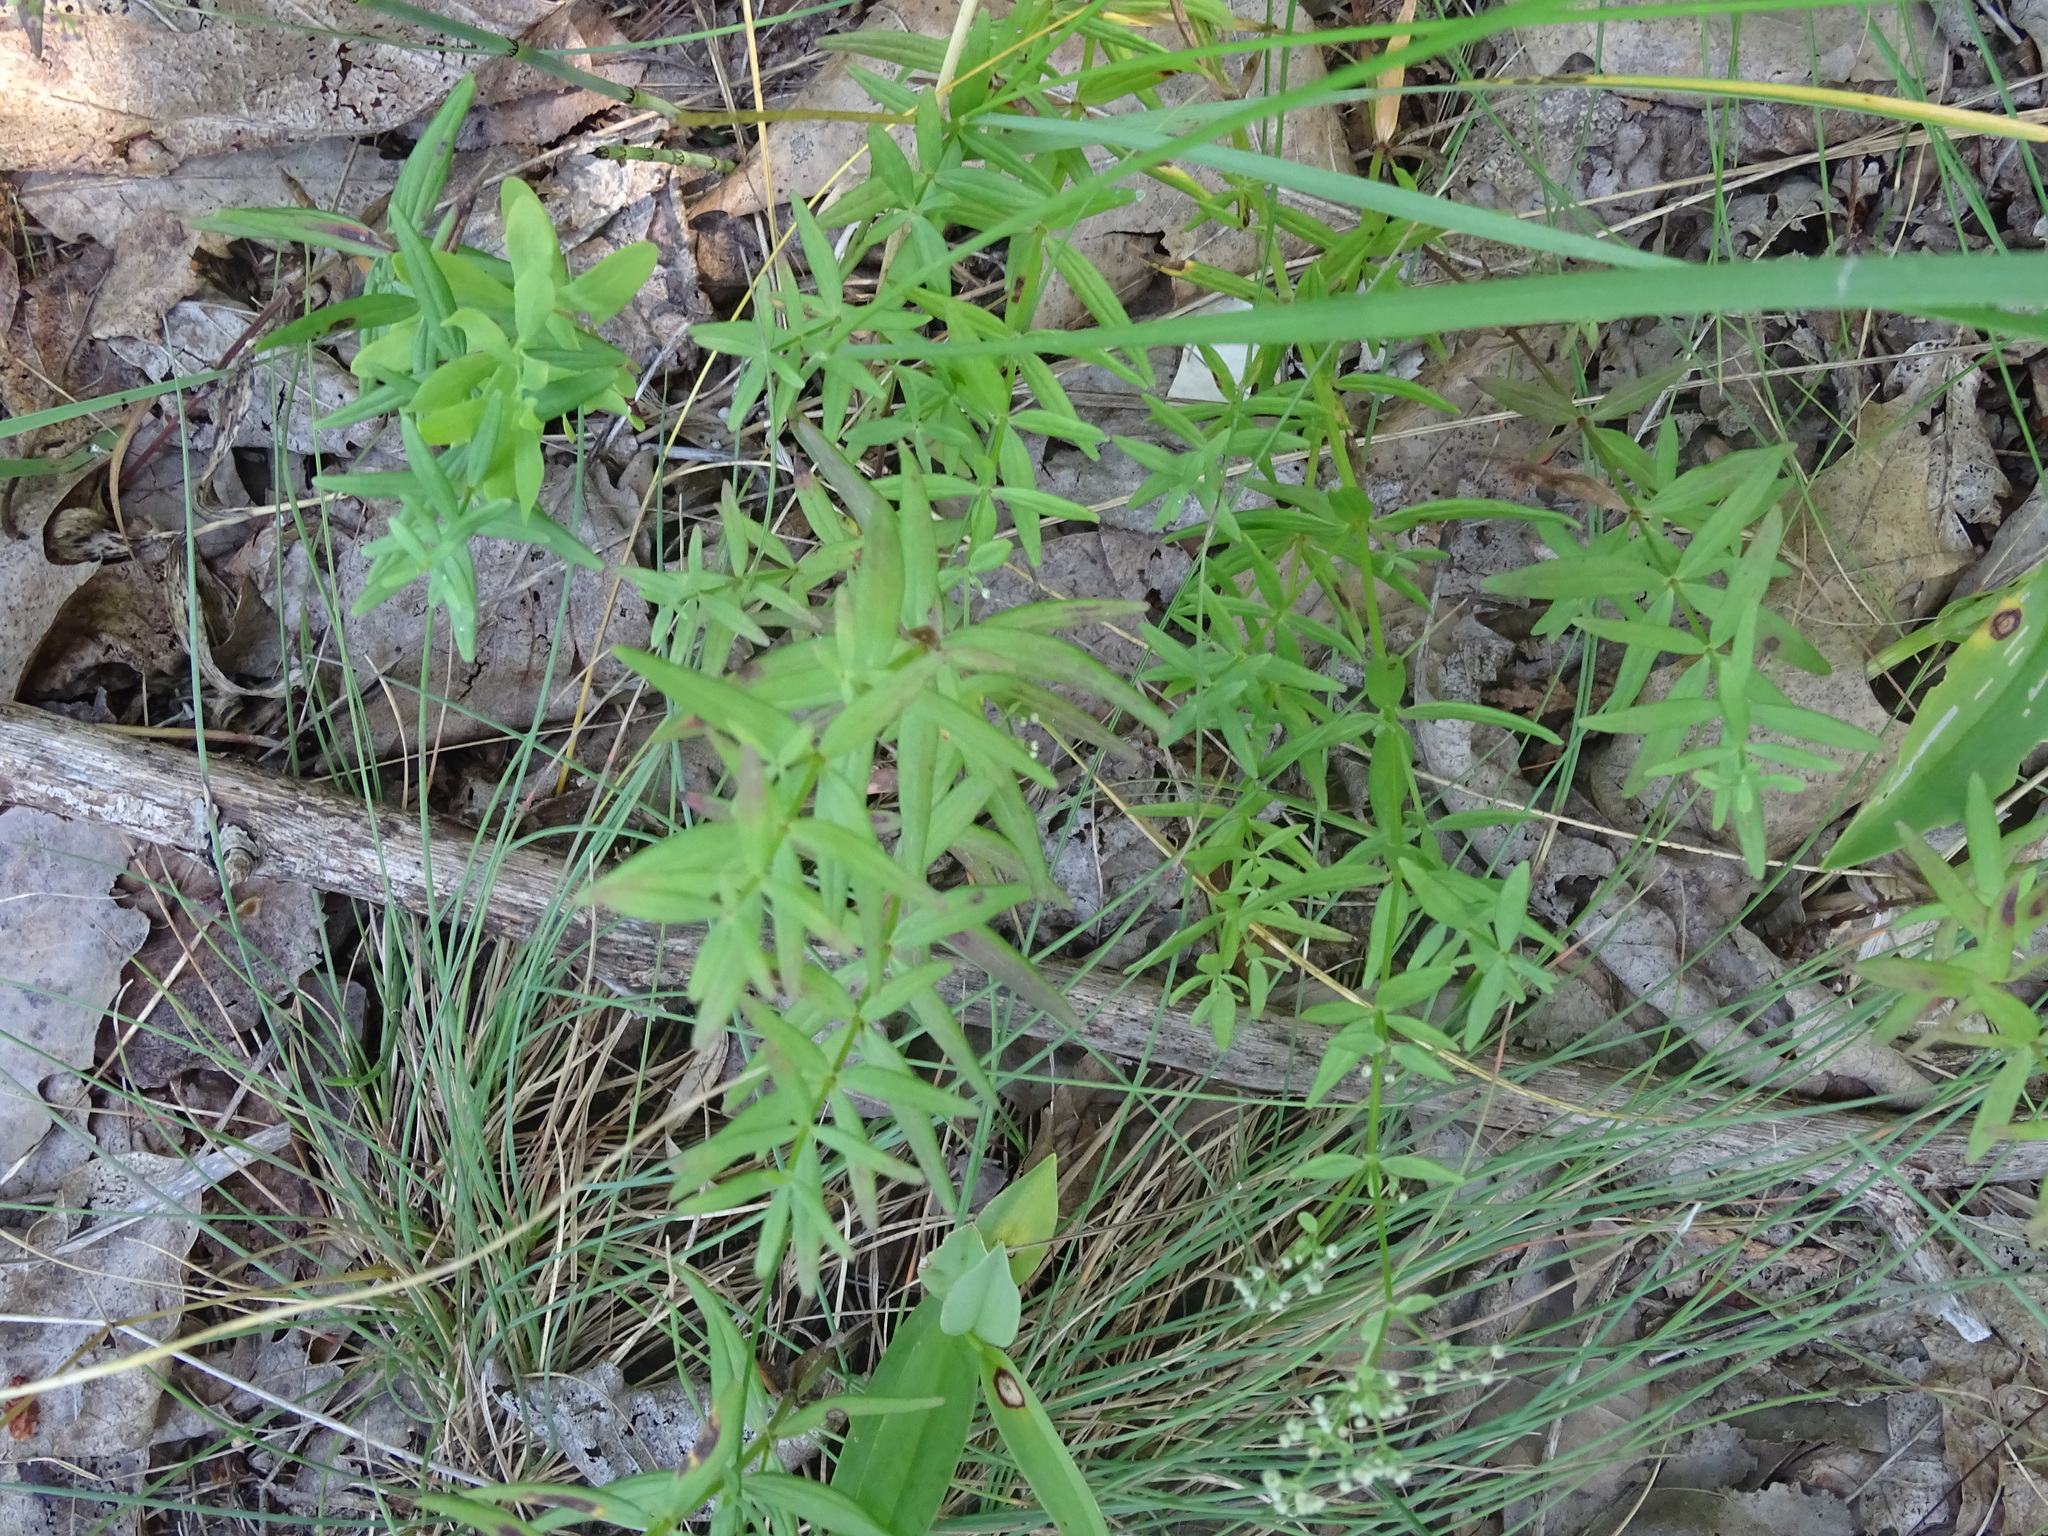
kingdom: Plantae
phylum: Tracheophyta
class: Magnoliopsida
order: Gentianales
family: Rubiaceae
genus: Galium
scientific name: Galium boreale
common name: Northern bedstraw
